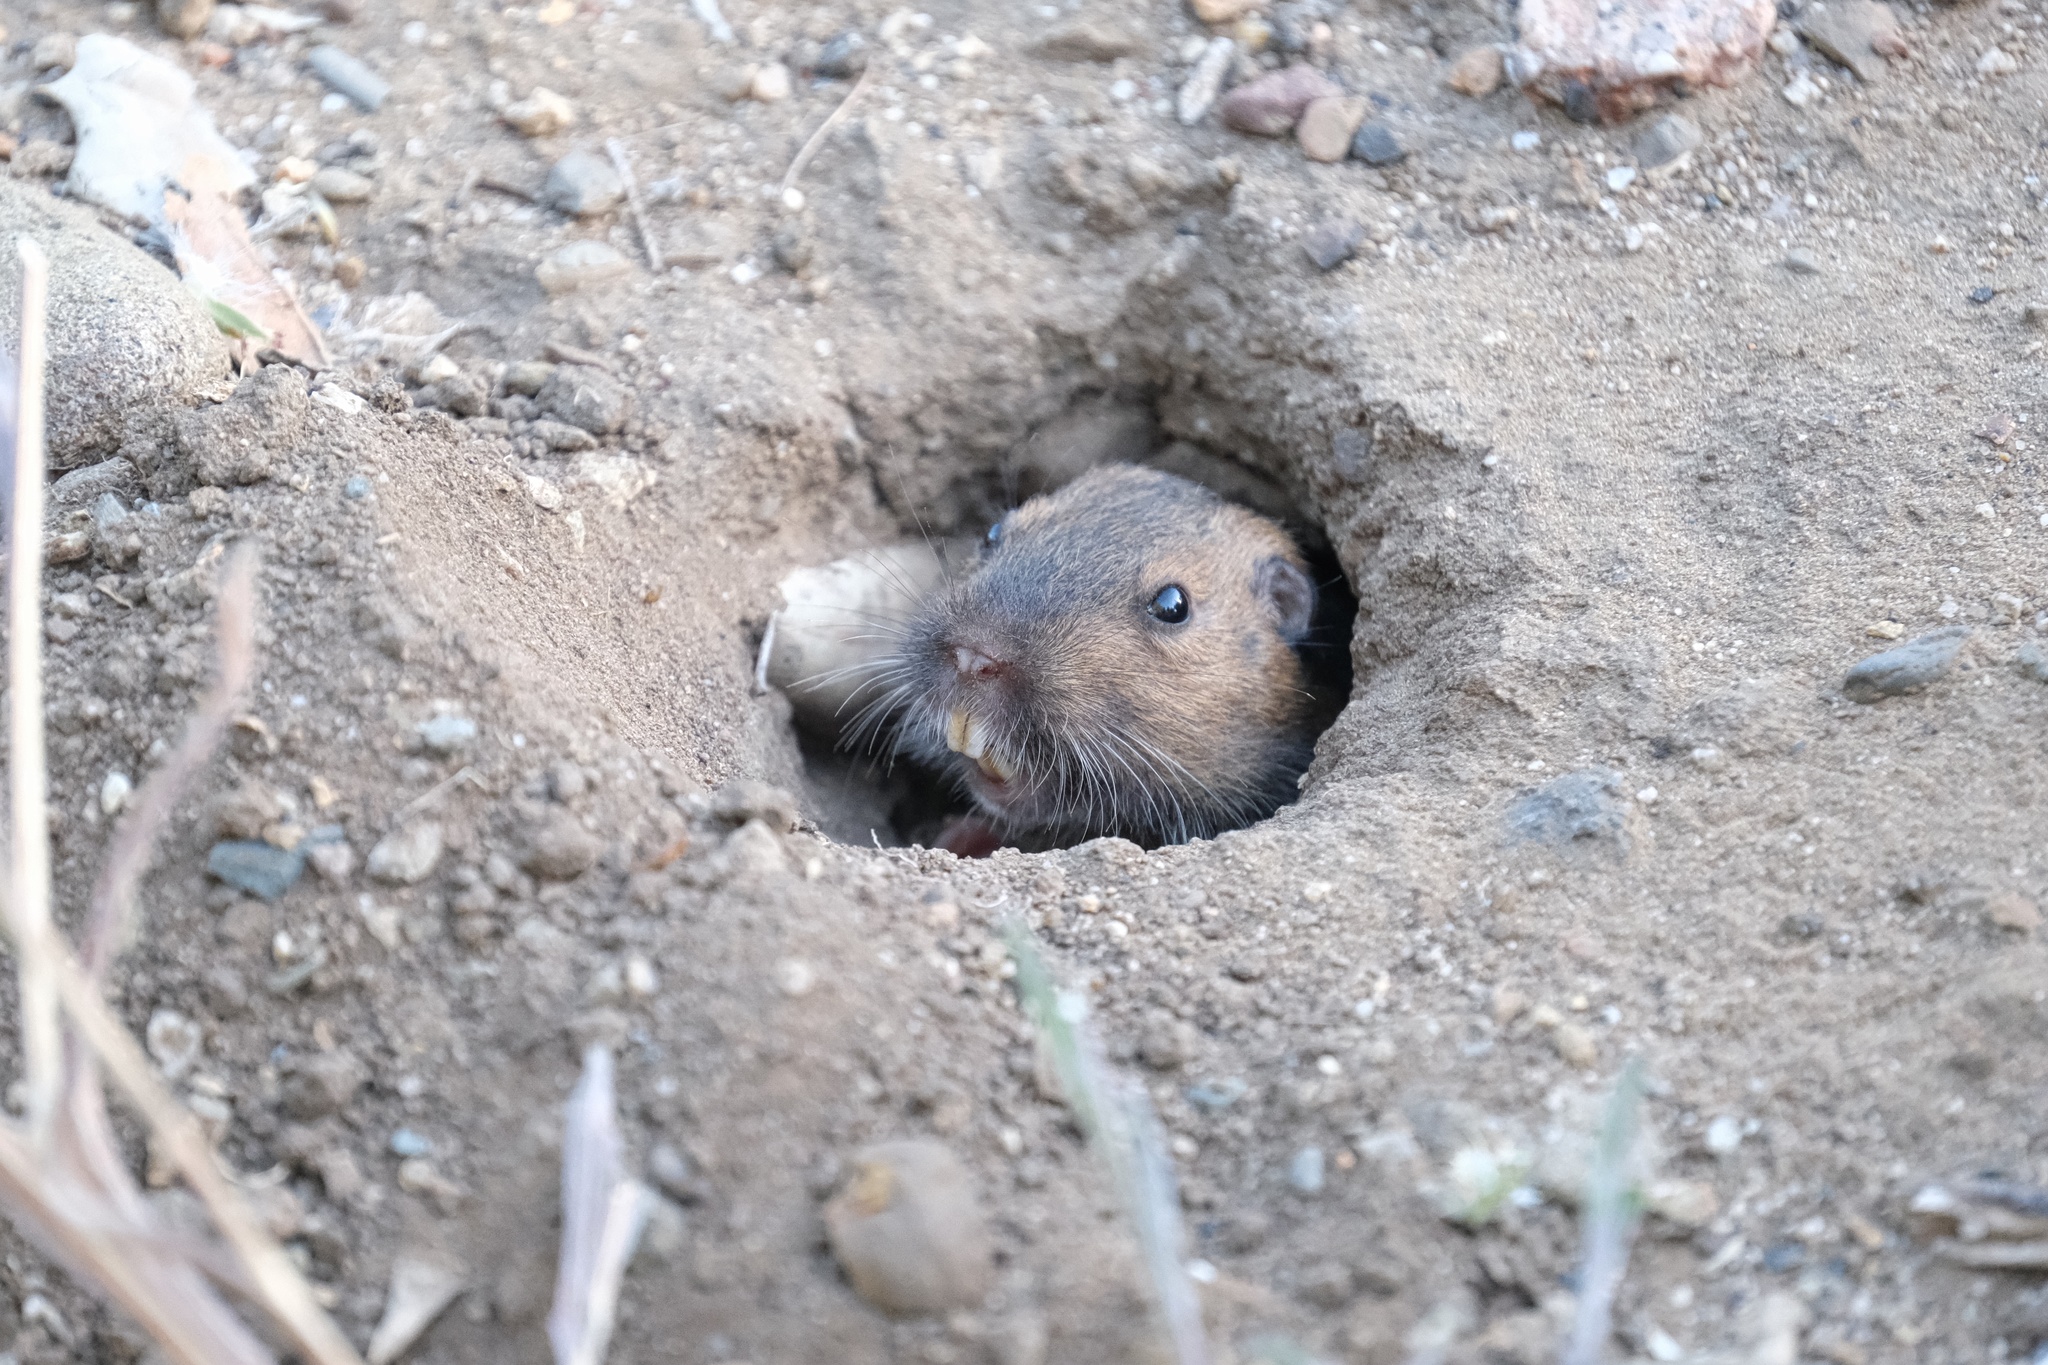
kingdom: Animalia
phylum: Chordata
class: Mammalia
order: Rodentia
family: Geomyidae
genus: Thomomys
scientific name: Thomomys bottae
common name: Botta's pocket gopher
